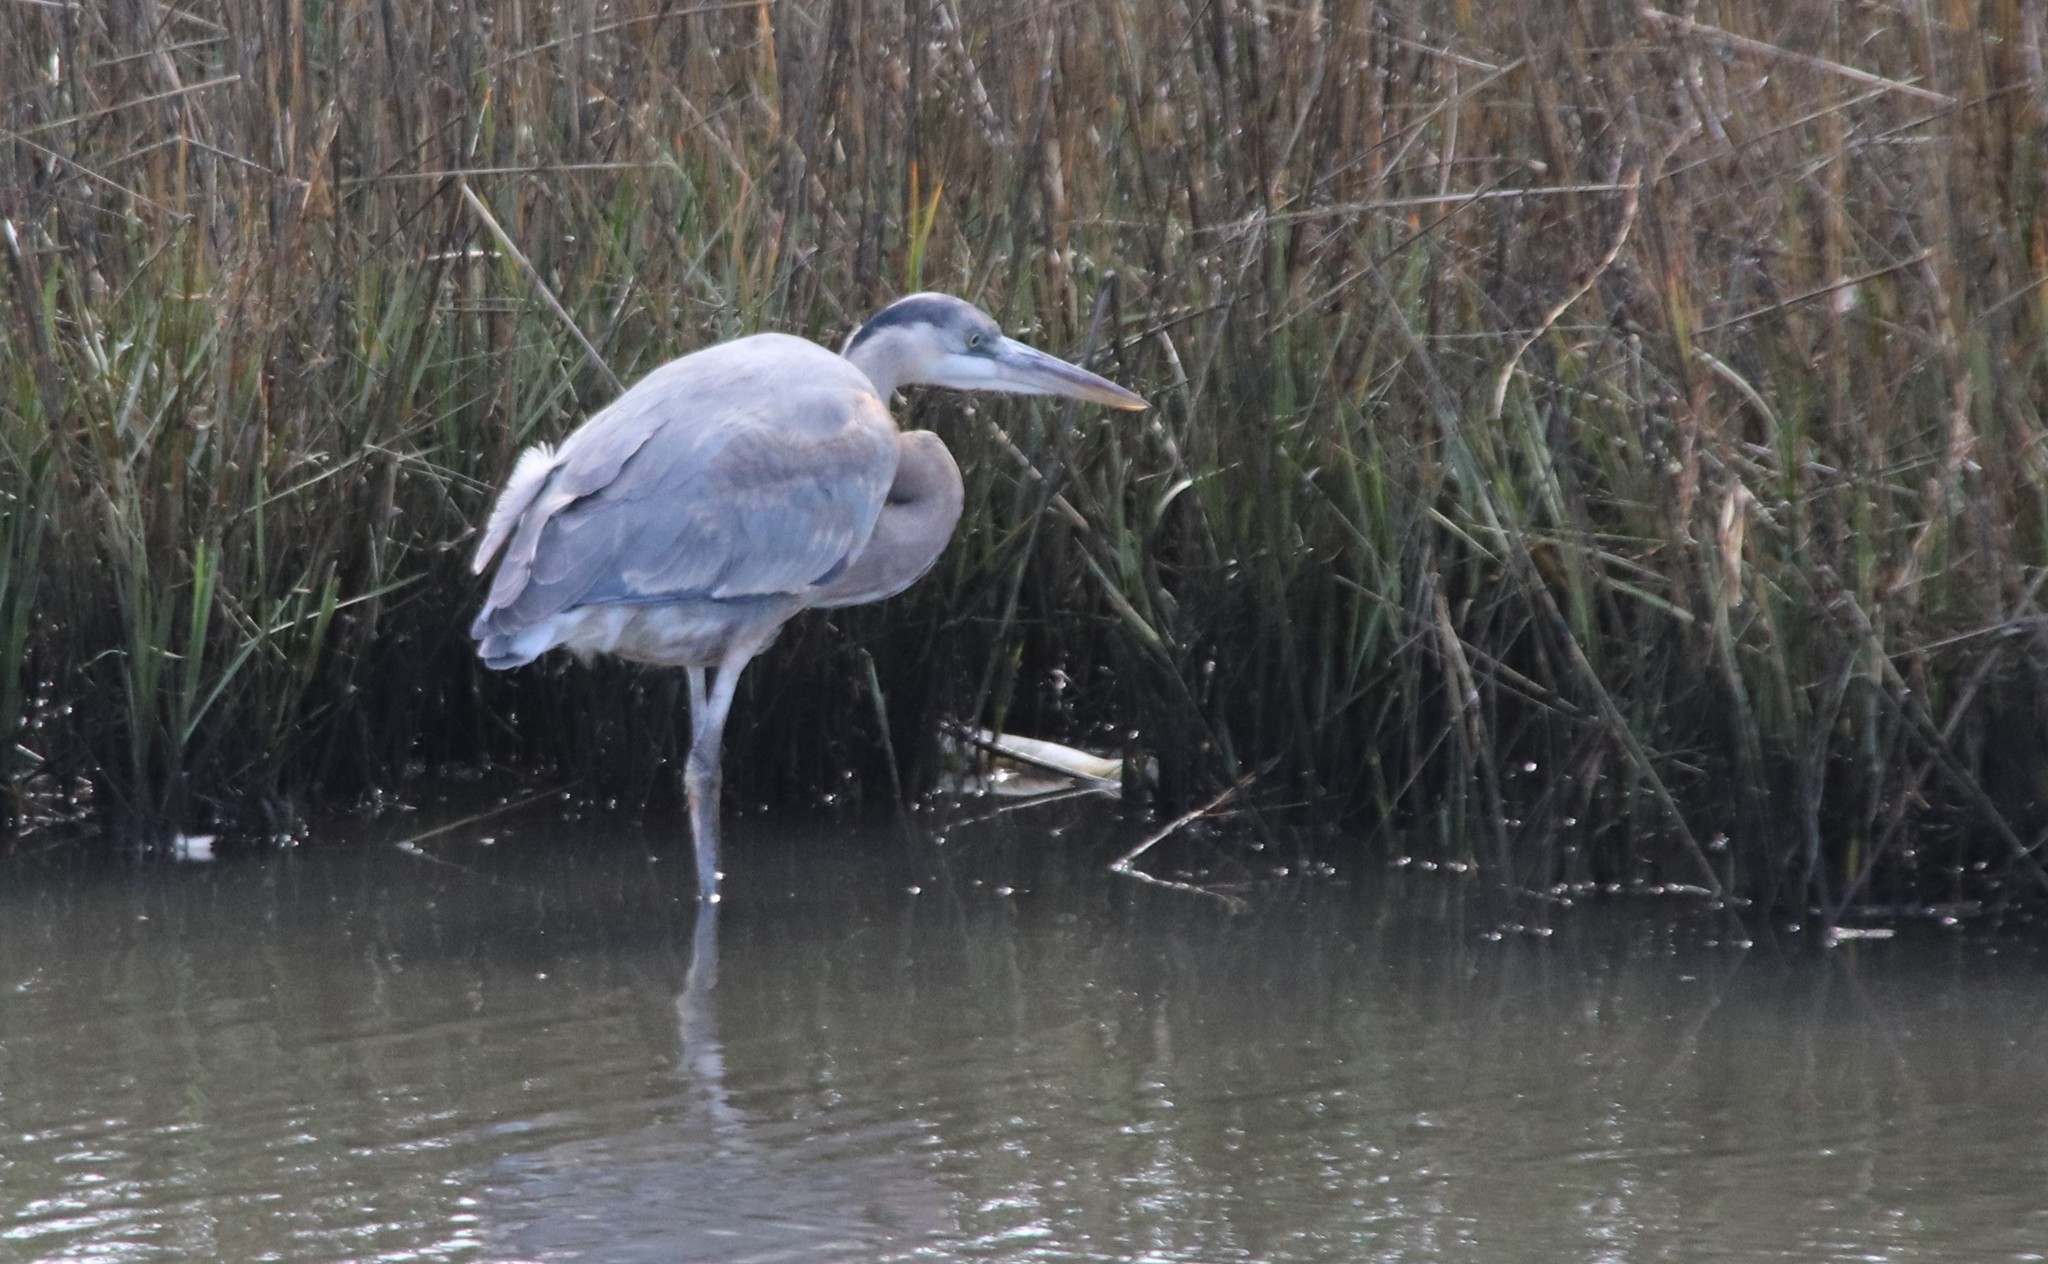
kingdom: Animalia
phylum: Chordata
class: Aves
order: Pelecaniformes
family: Ardeidae
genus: Ardea
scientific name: Ardea herodias
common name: Great blue heron
